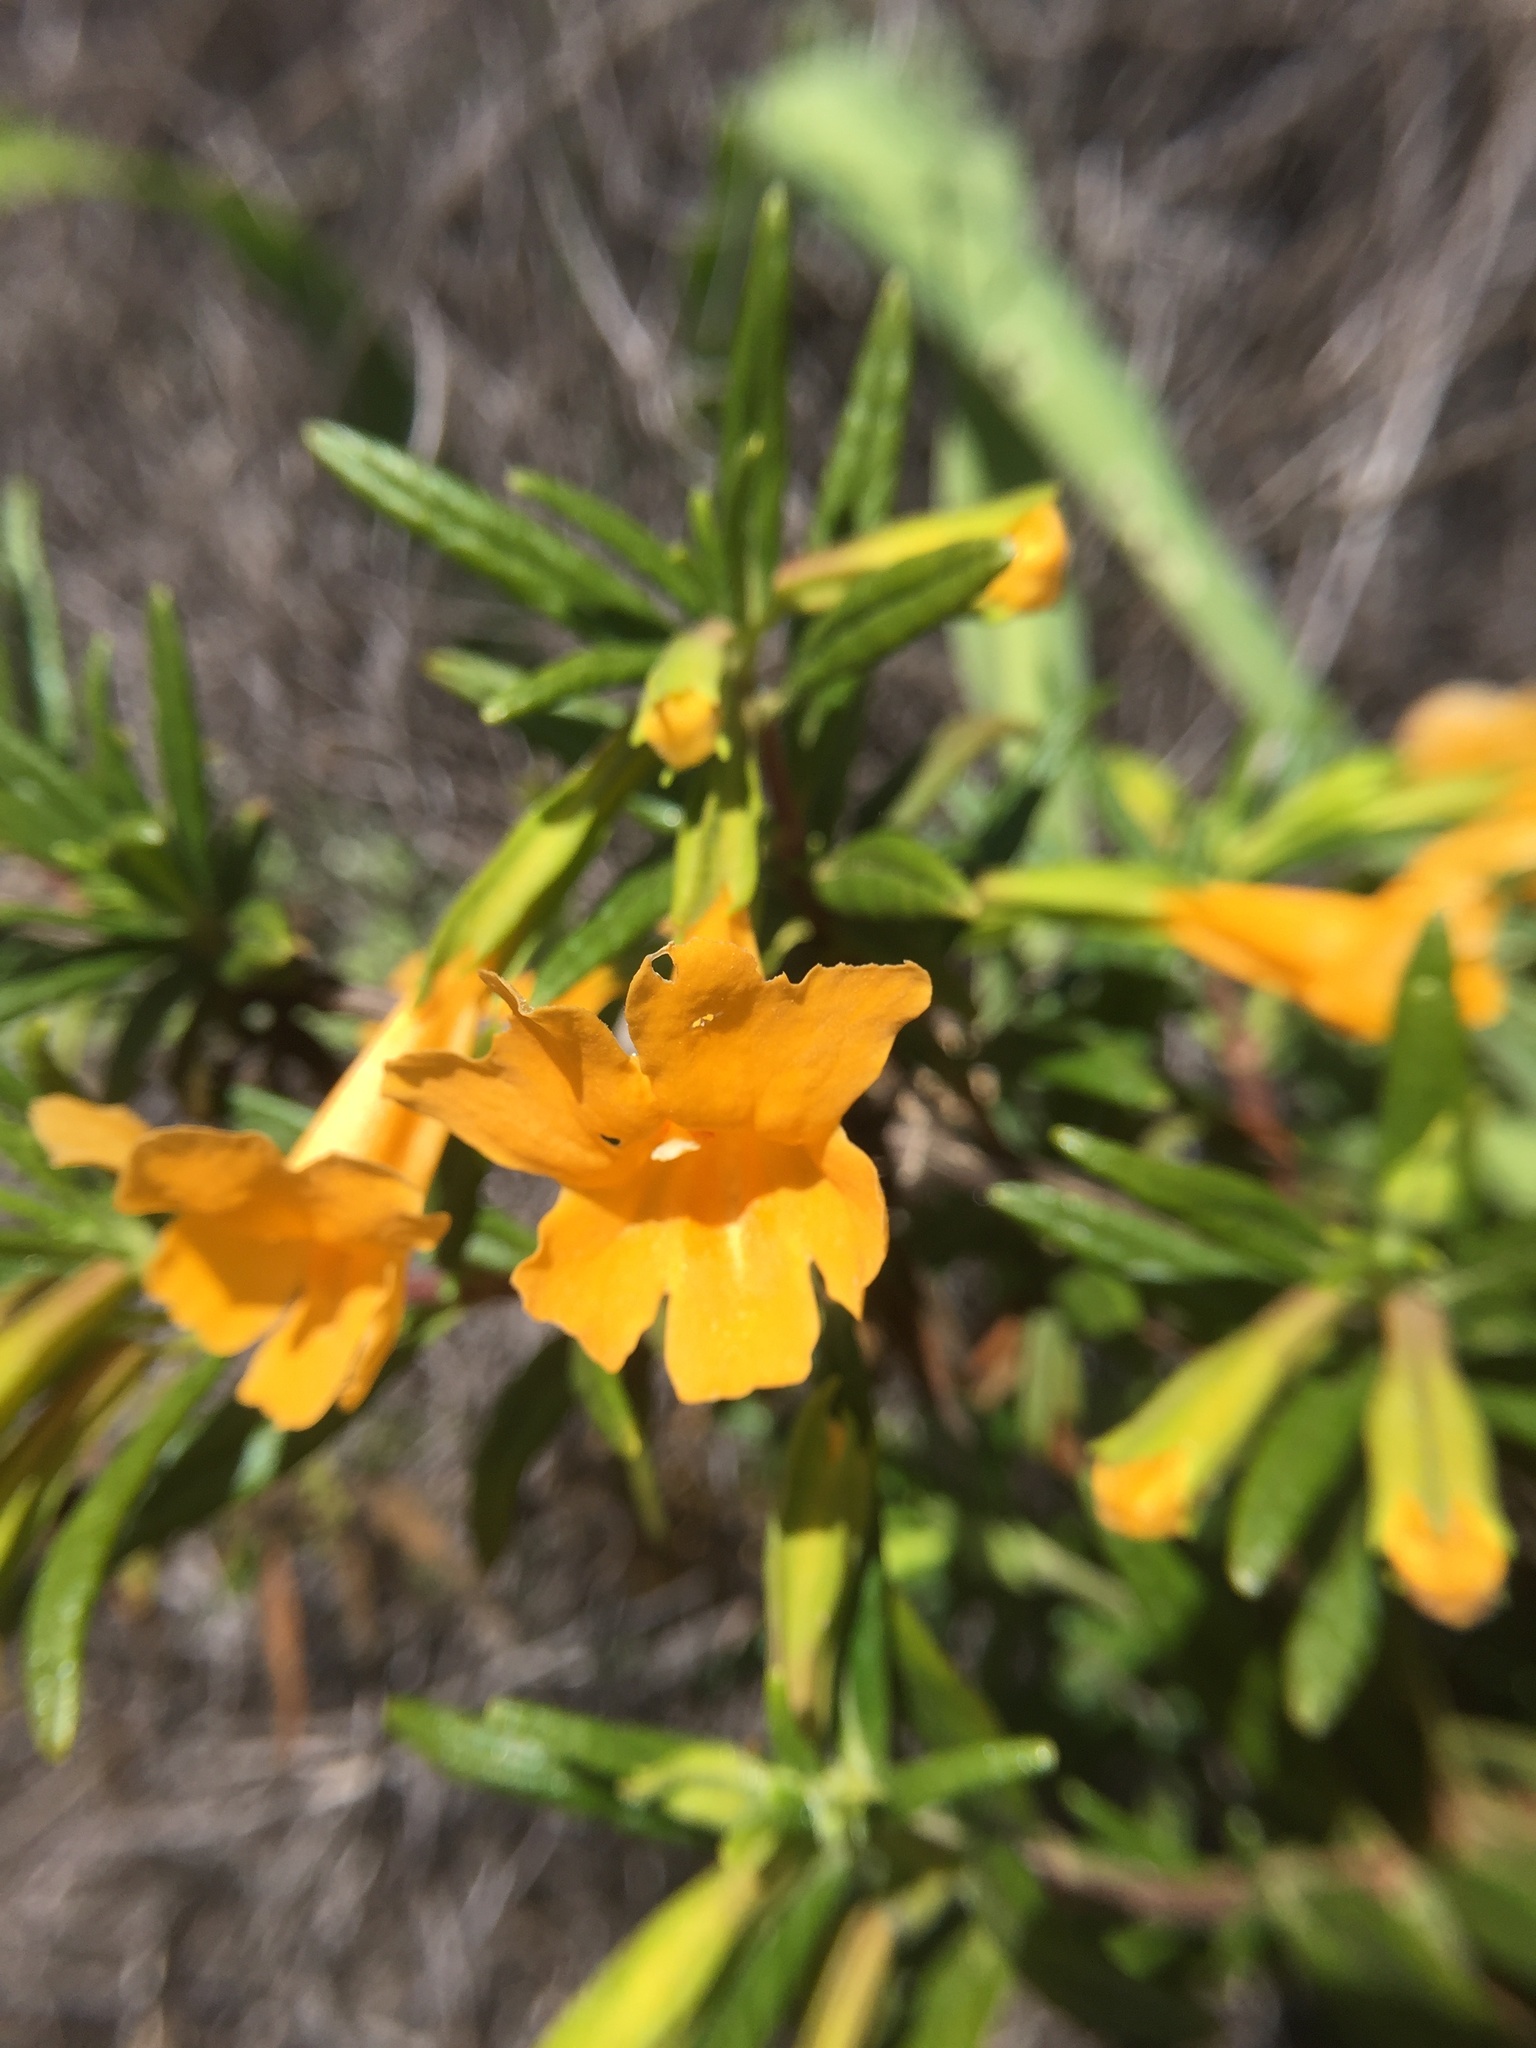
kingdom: Plantae
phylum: Tracheophyta
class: Magnoliopsida
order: Lamiales
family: Phrymaceae
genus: Diplacus
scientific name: Diplacus aurantiacus
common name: Bush monkey-flower
